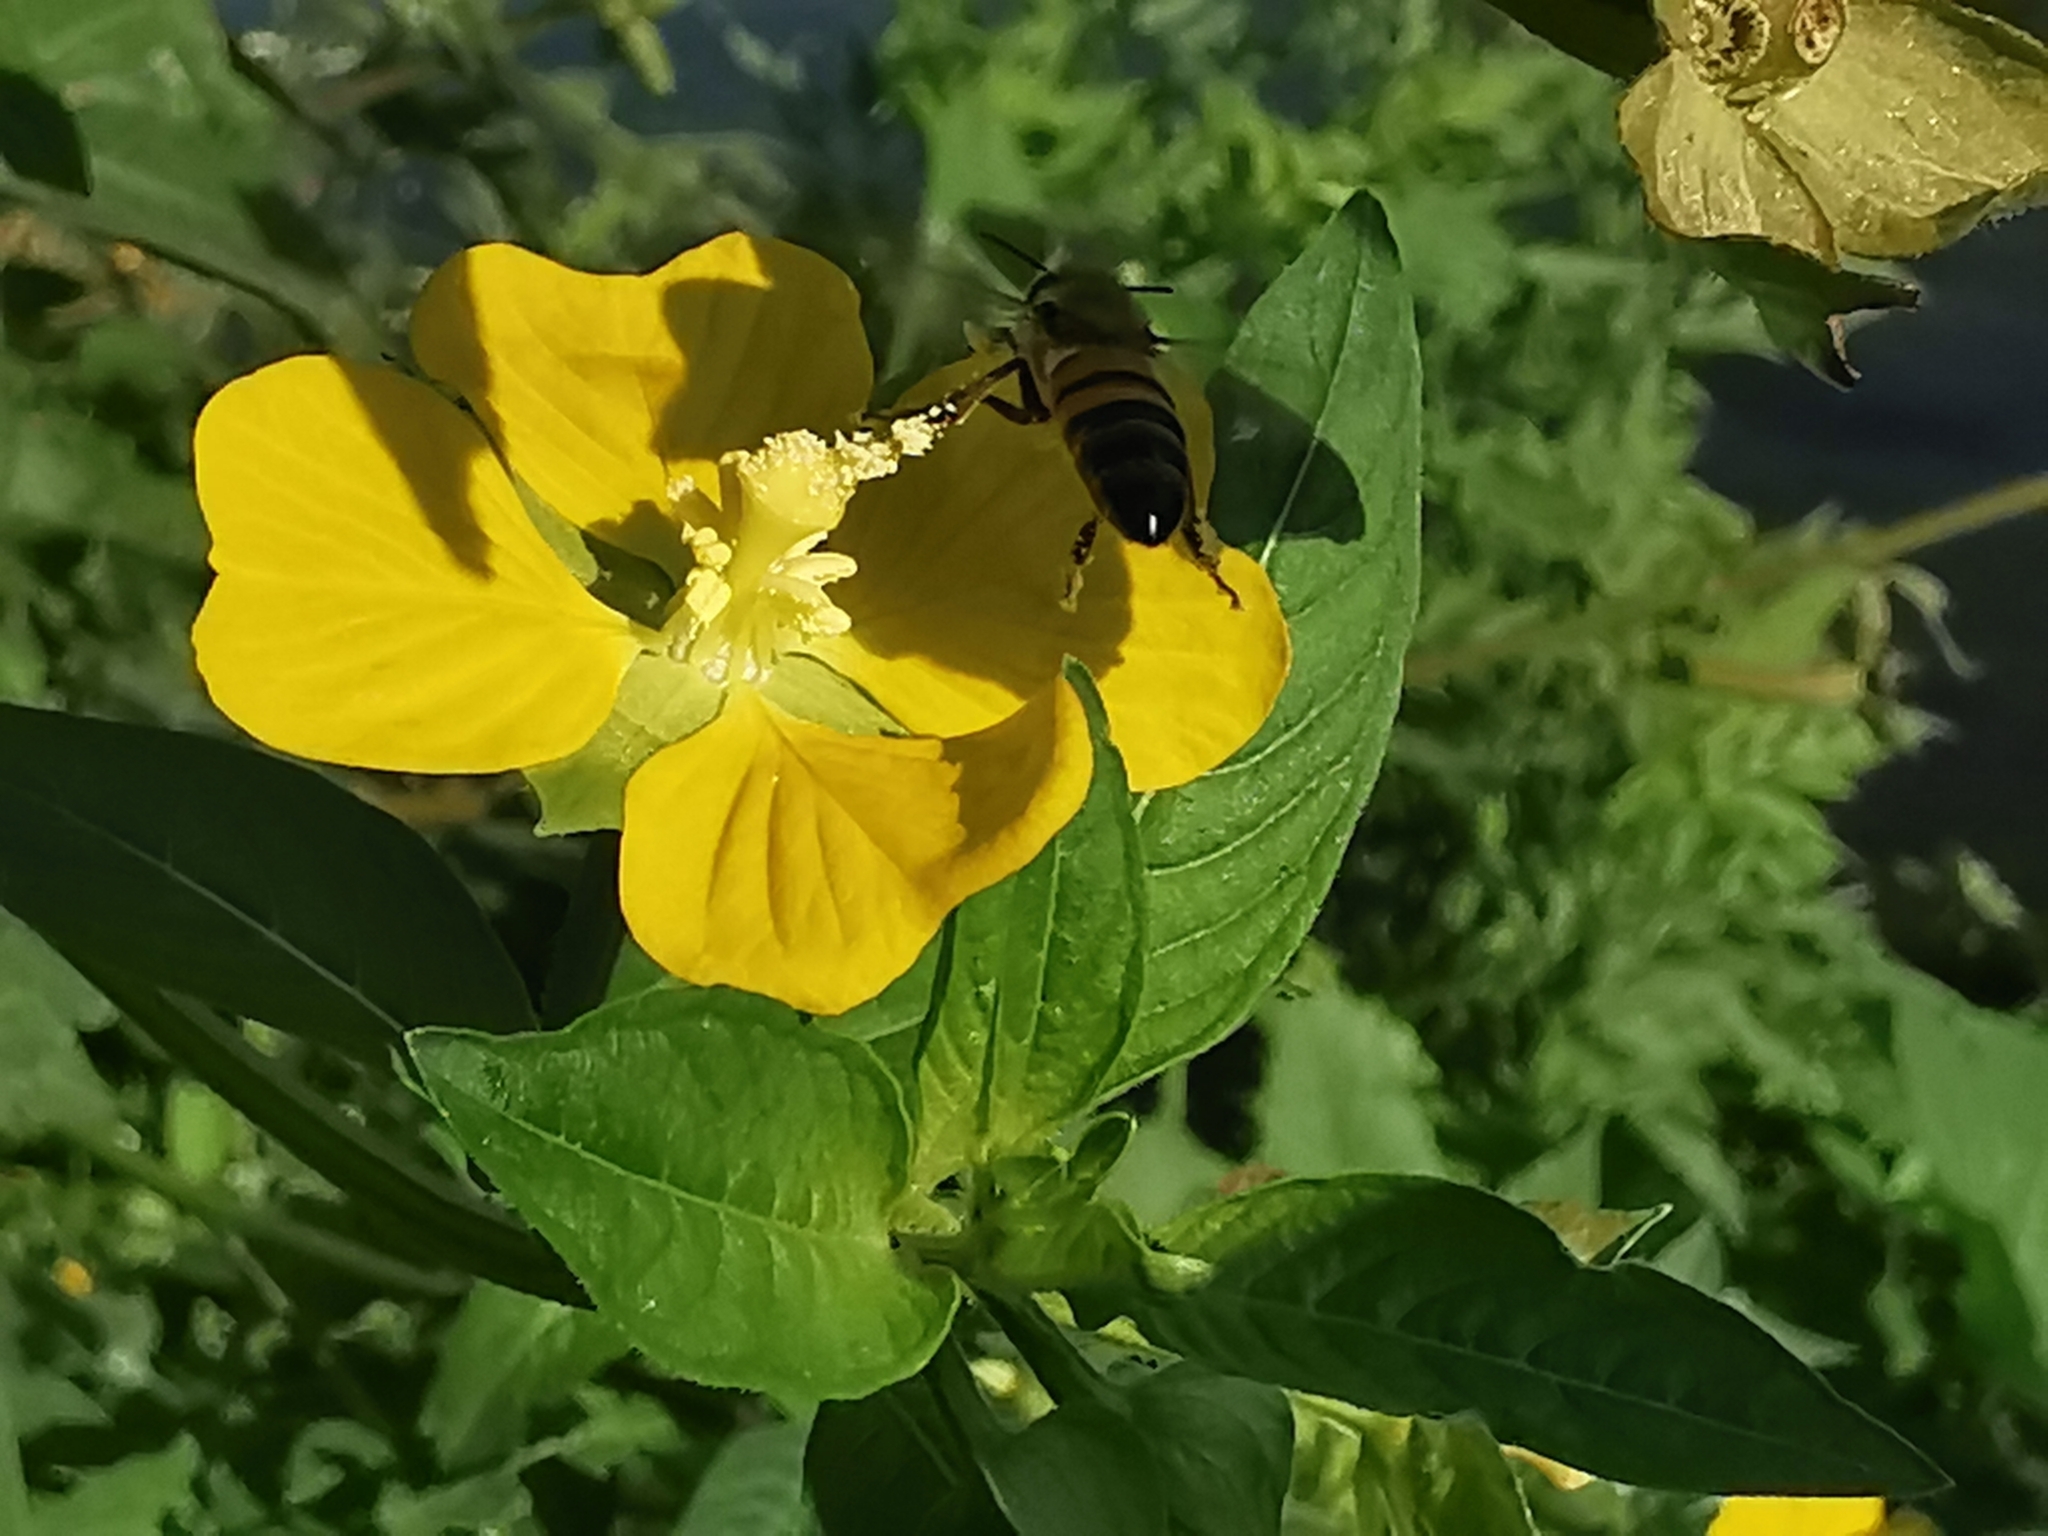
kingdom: Animalia
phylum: Arthropoda
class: Insecta
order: Hymenoptera
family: Apidae
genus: Apis
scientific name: Apis mellifera
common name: Honey bee
